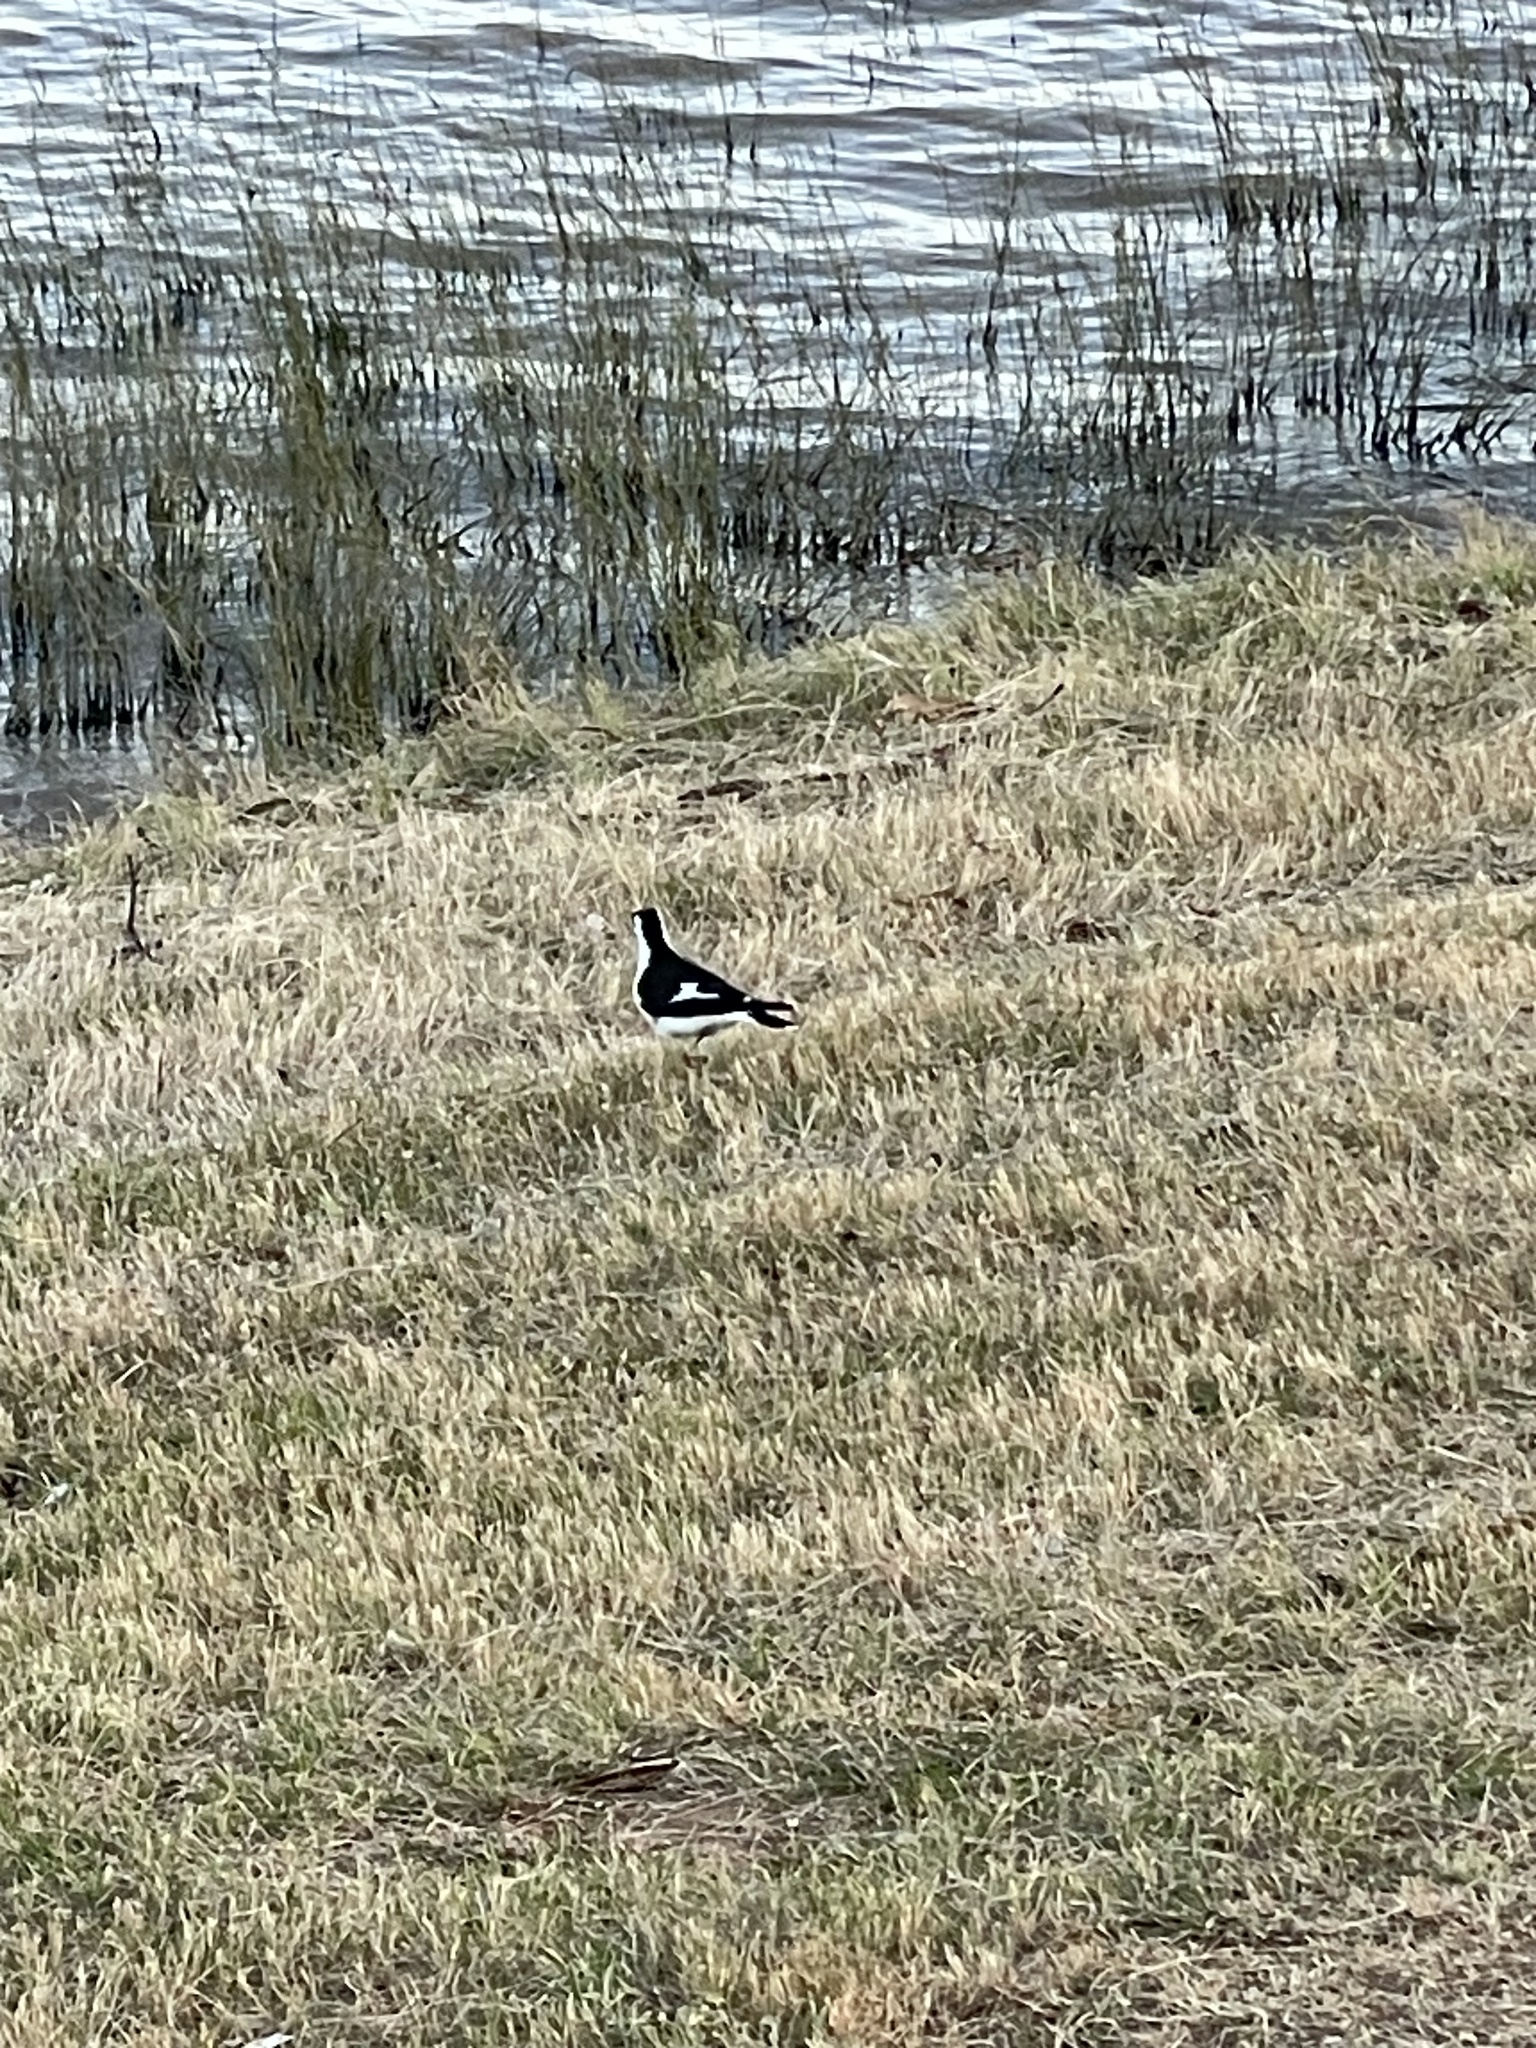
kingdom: Animalia
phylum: Chordata
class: Aves
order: Passeriformes
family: Monarchidae
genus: Grallina
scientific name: Grallina cyanoleuca
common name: Magpie-lark
